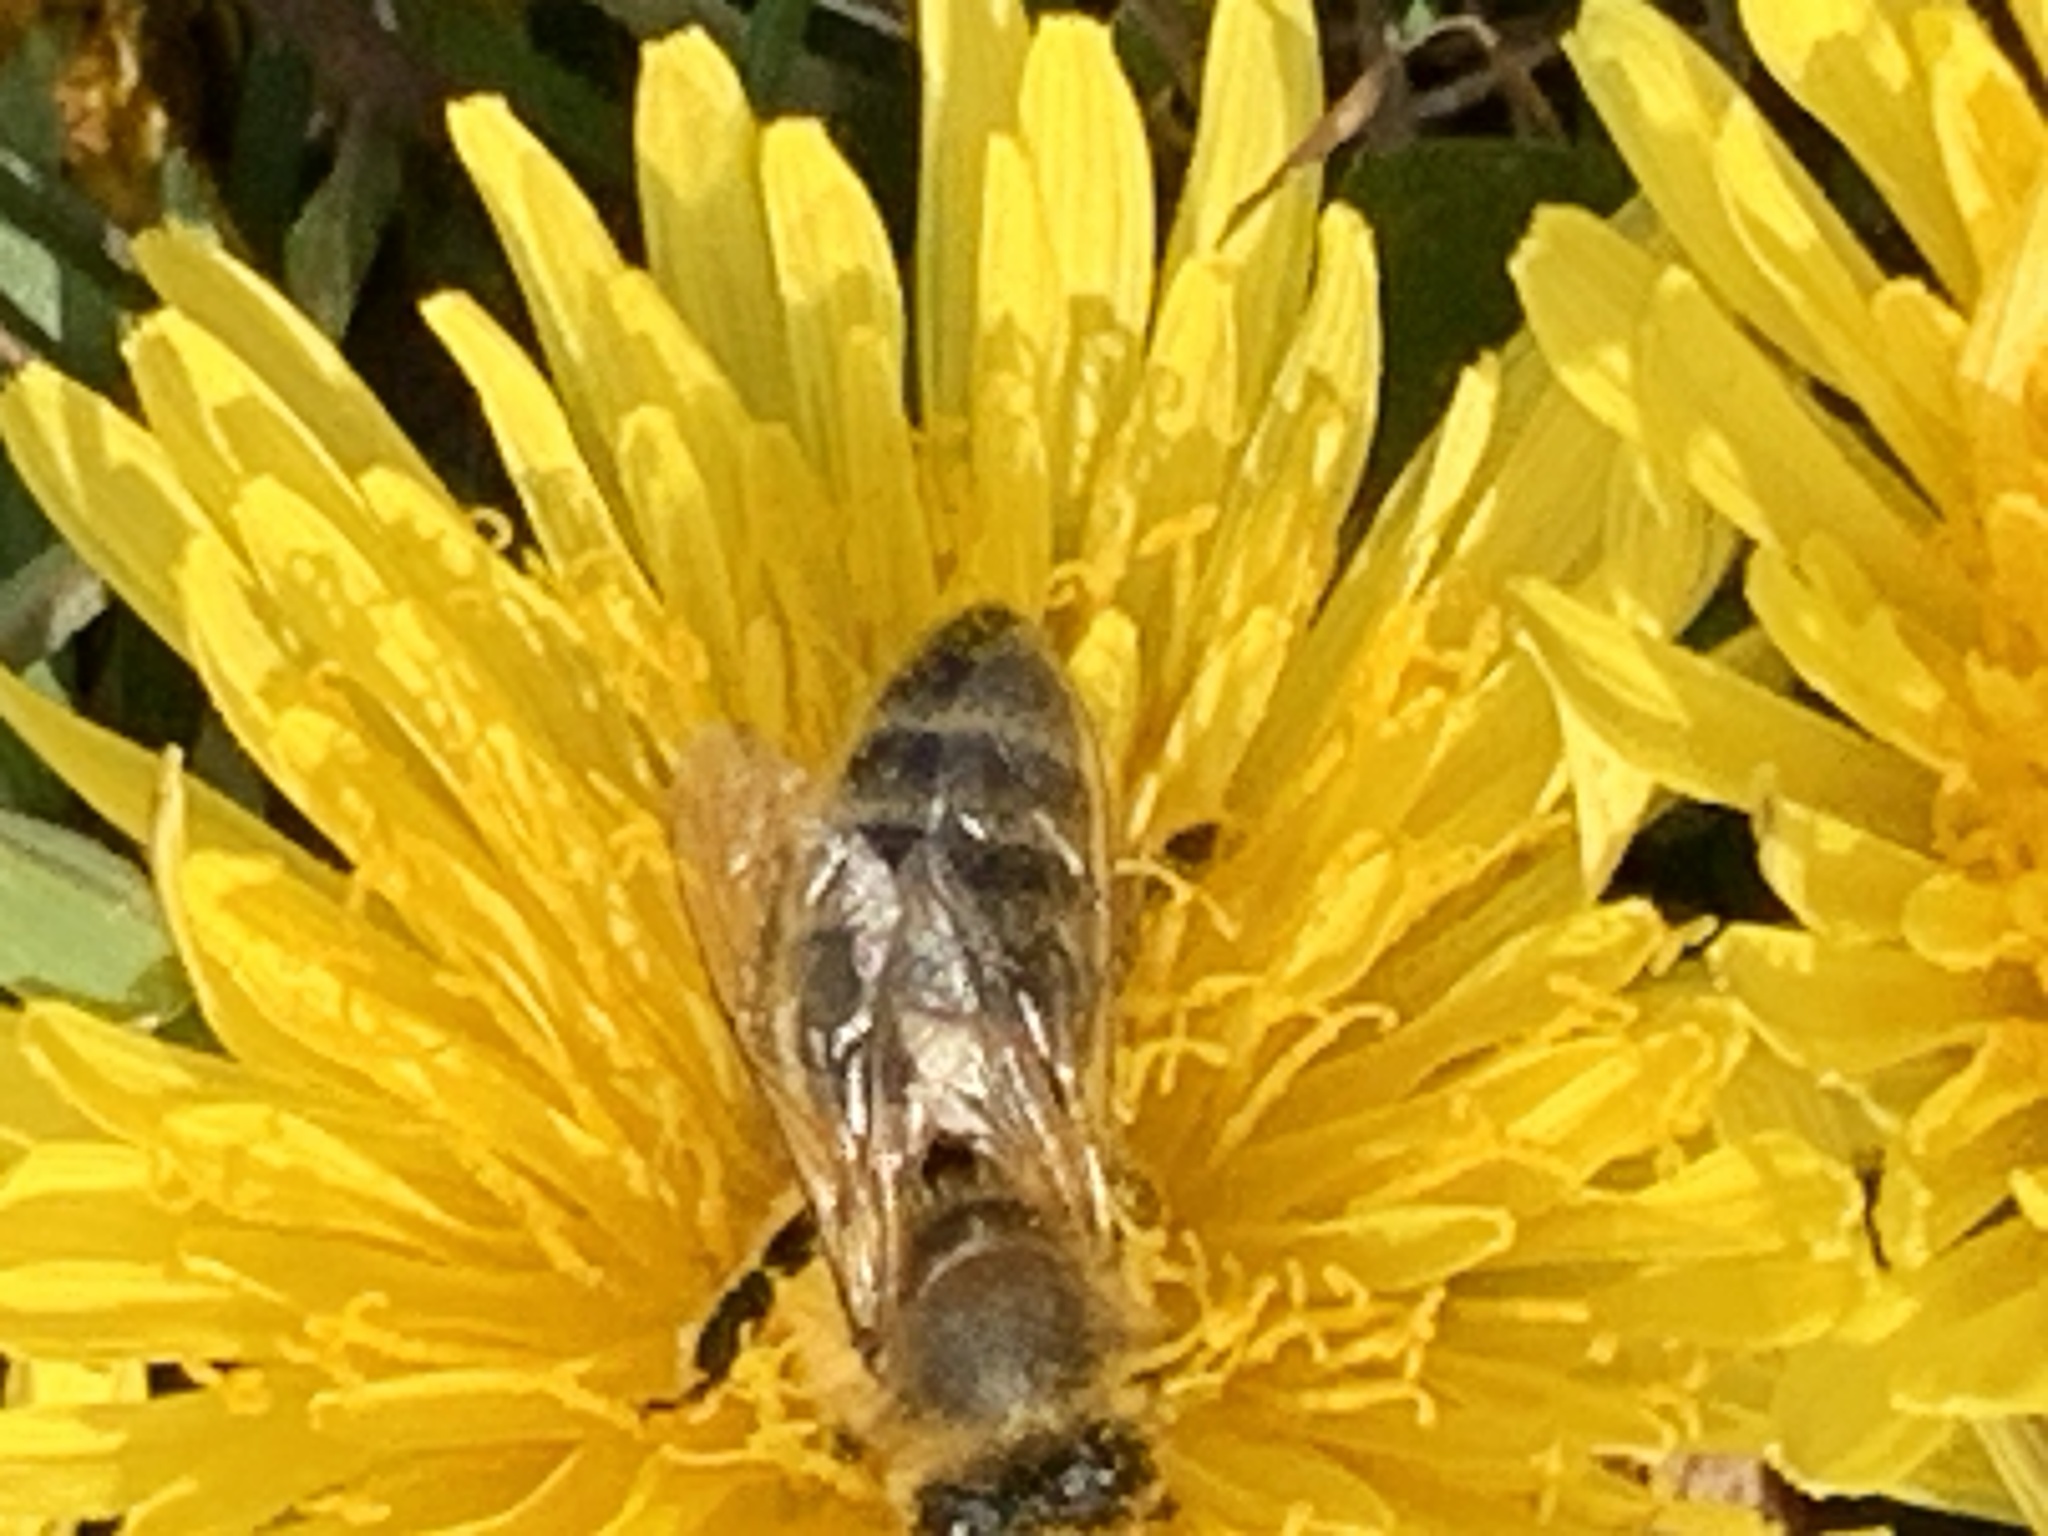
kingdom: Animalia
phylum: Arthropoda
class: Insecta
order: Hymenoptera
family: Apidae
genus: Apis
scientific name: Apis mellifera
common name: Honey bee
